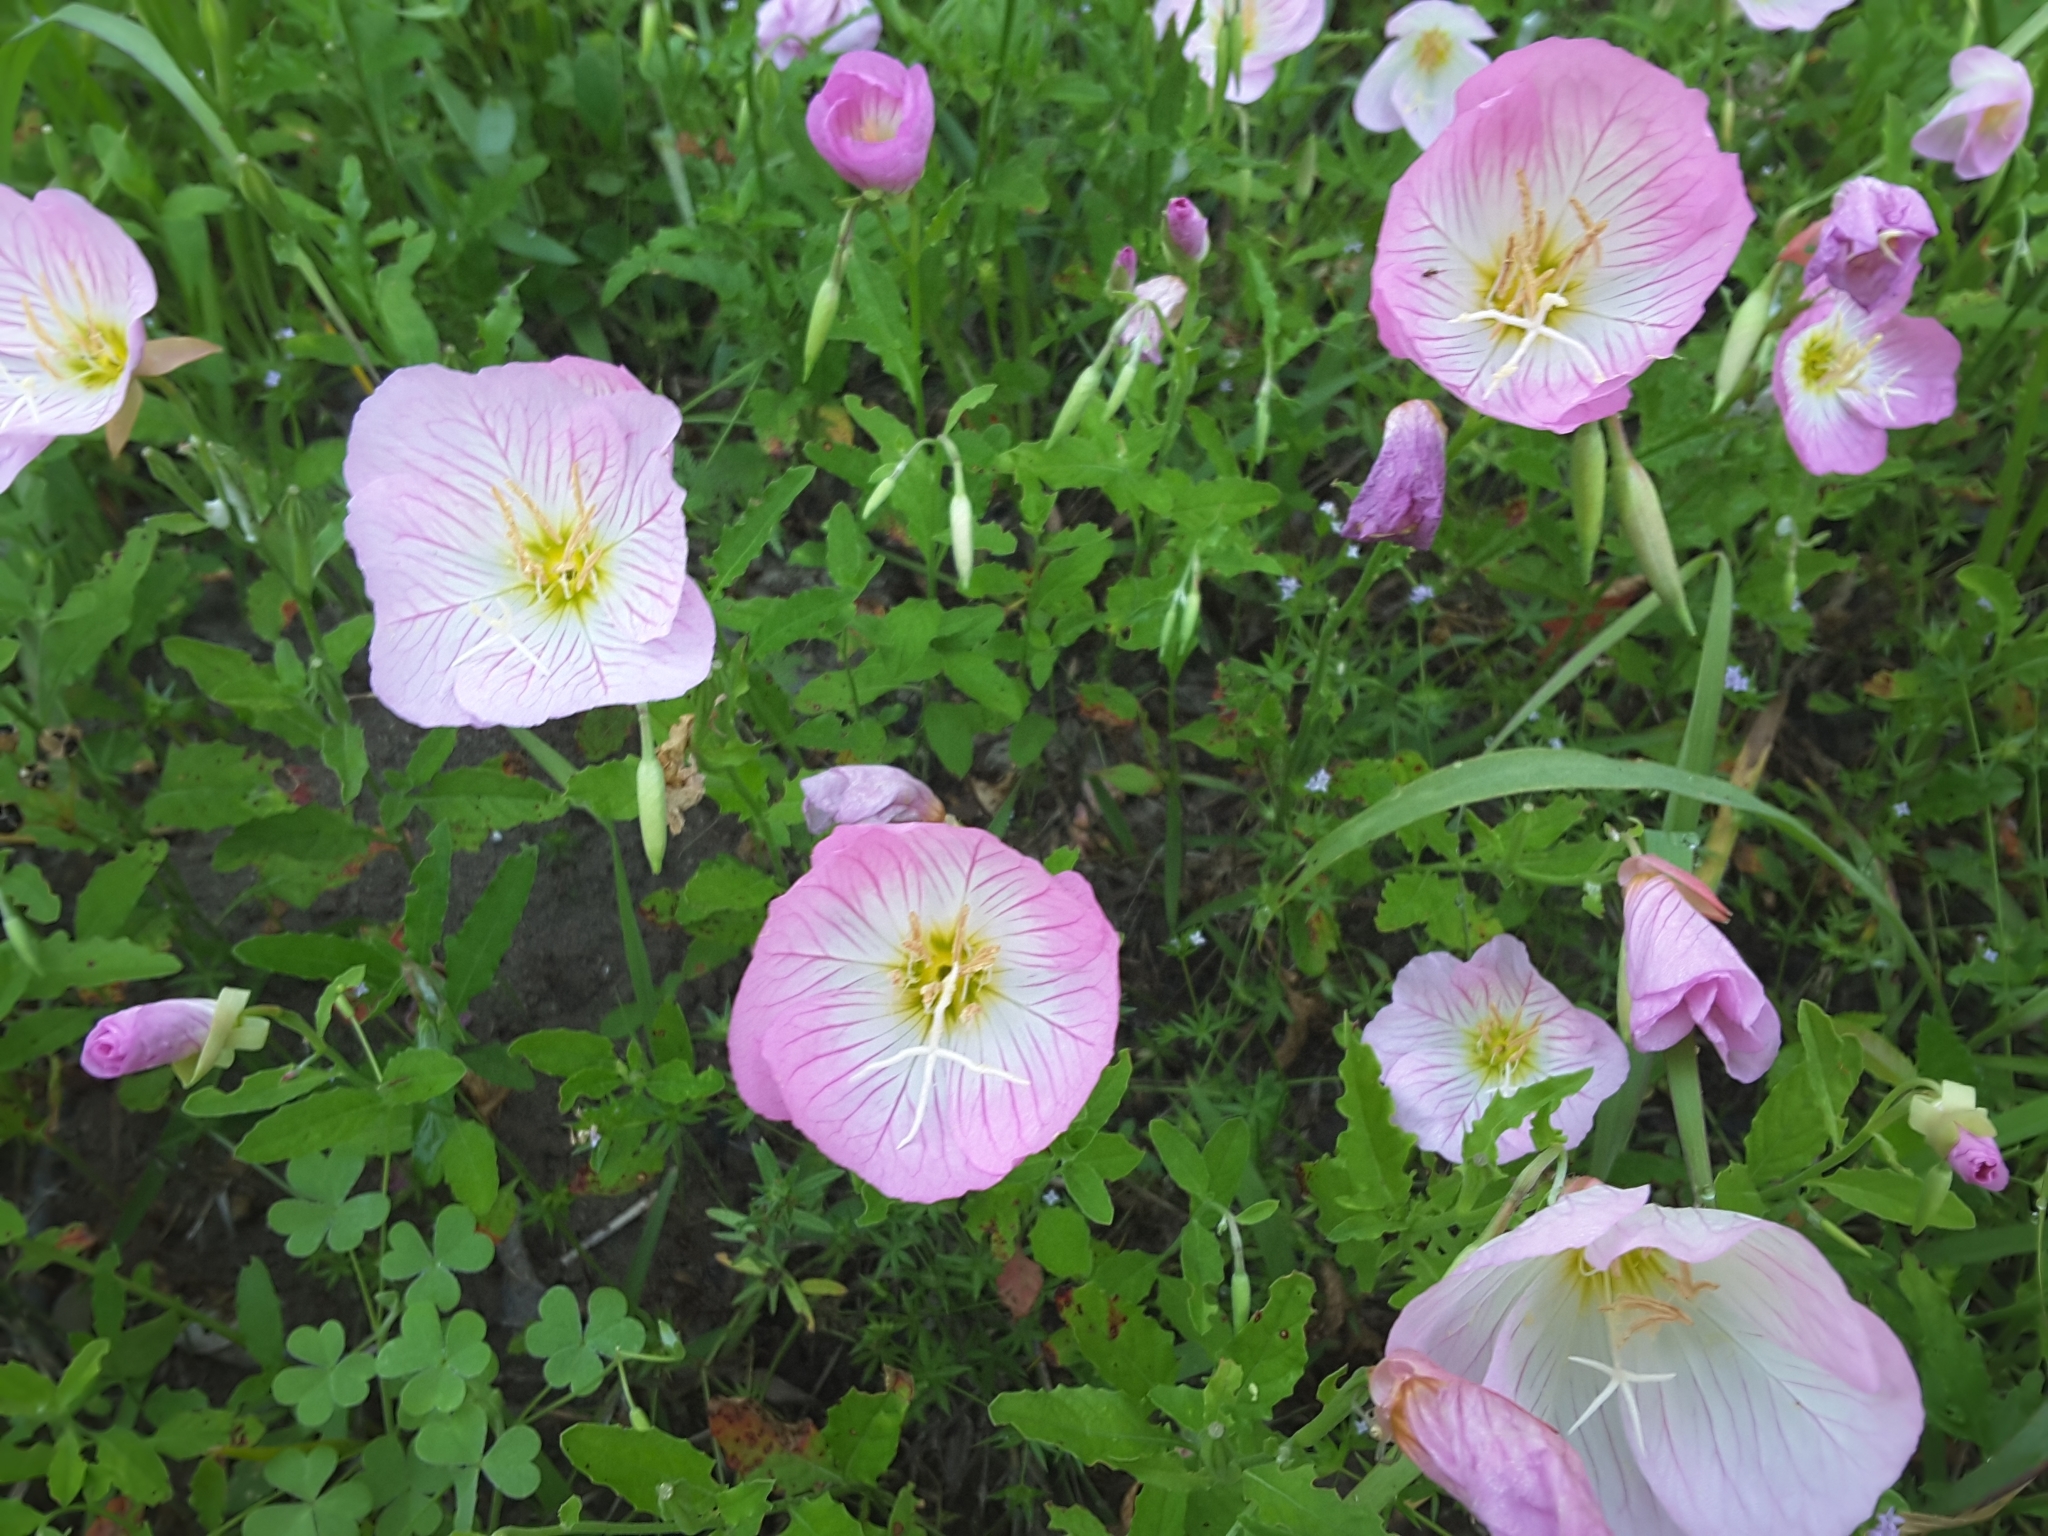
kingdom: Plantae
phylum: Tracheophyta
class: Magnoliopsida
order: Myrtales
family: Onagraceae
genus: Oenothera
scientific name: Oenothera speciosa
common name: White evening-primrose
